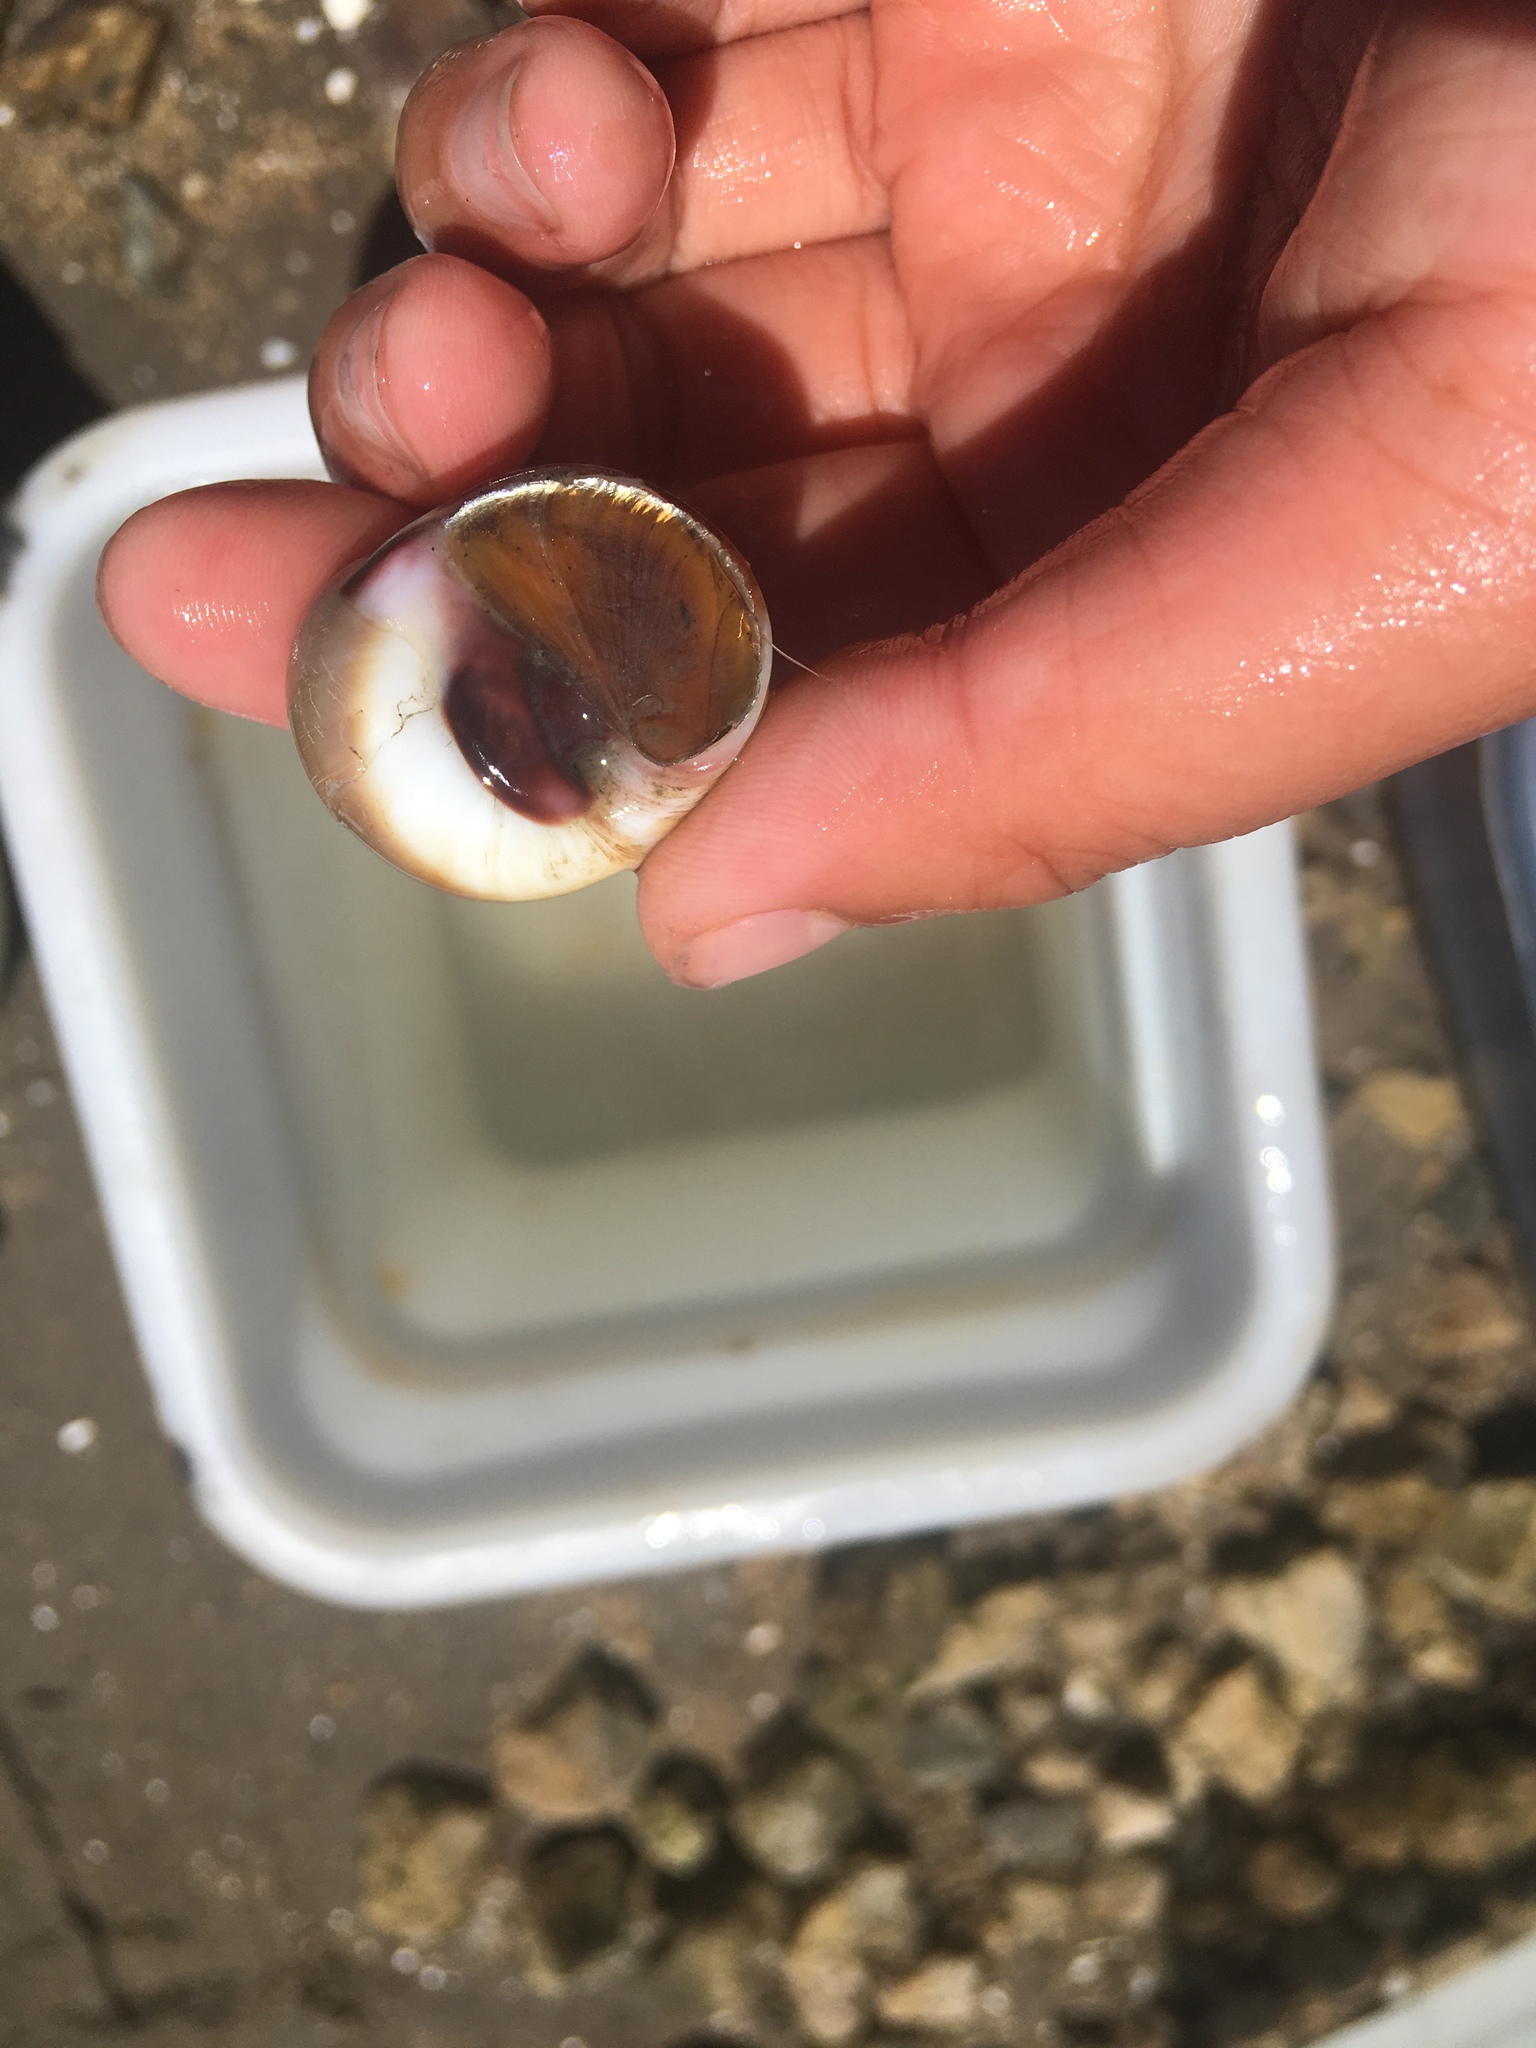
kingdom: Animalia
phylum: Mollusca
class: Gastropoda
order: Littorinimorpha
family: Naticidae
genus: Glossaulax
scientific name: Glossaulax reclusiana
